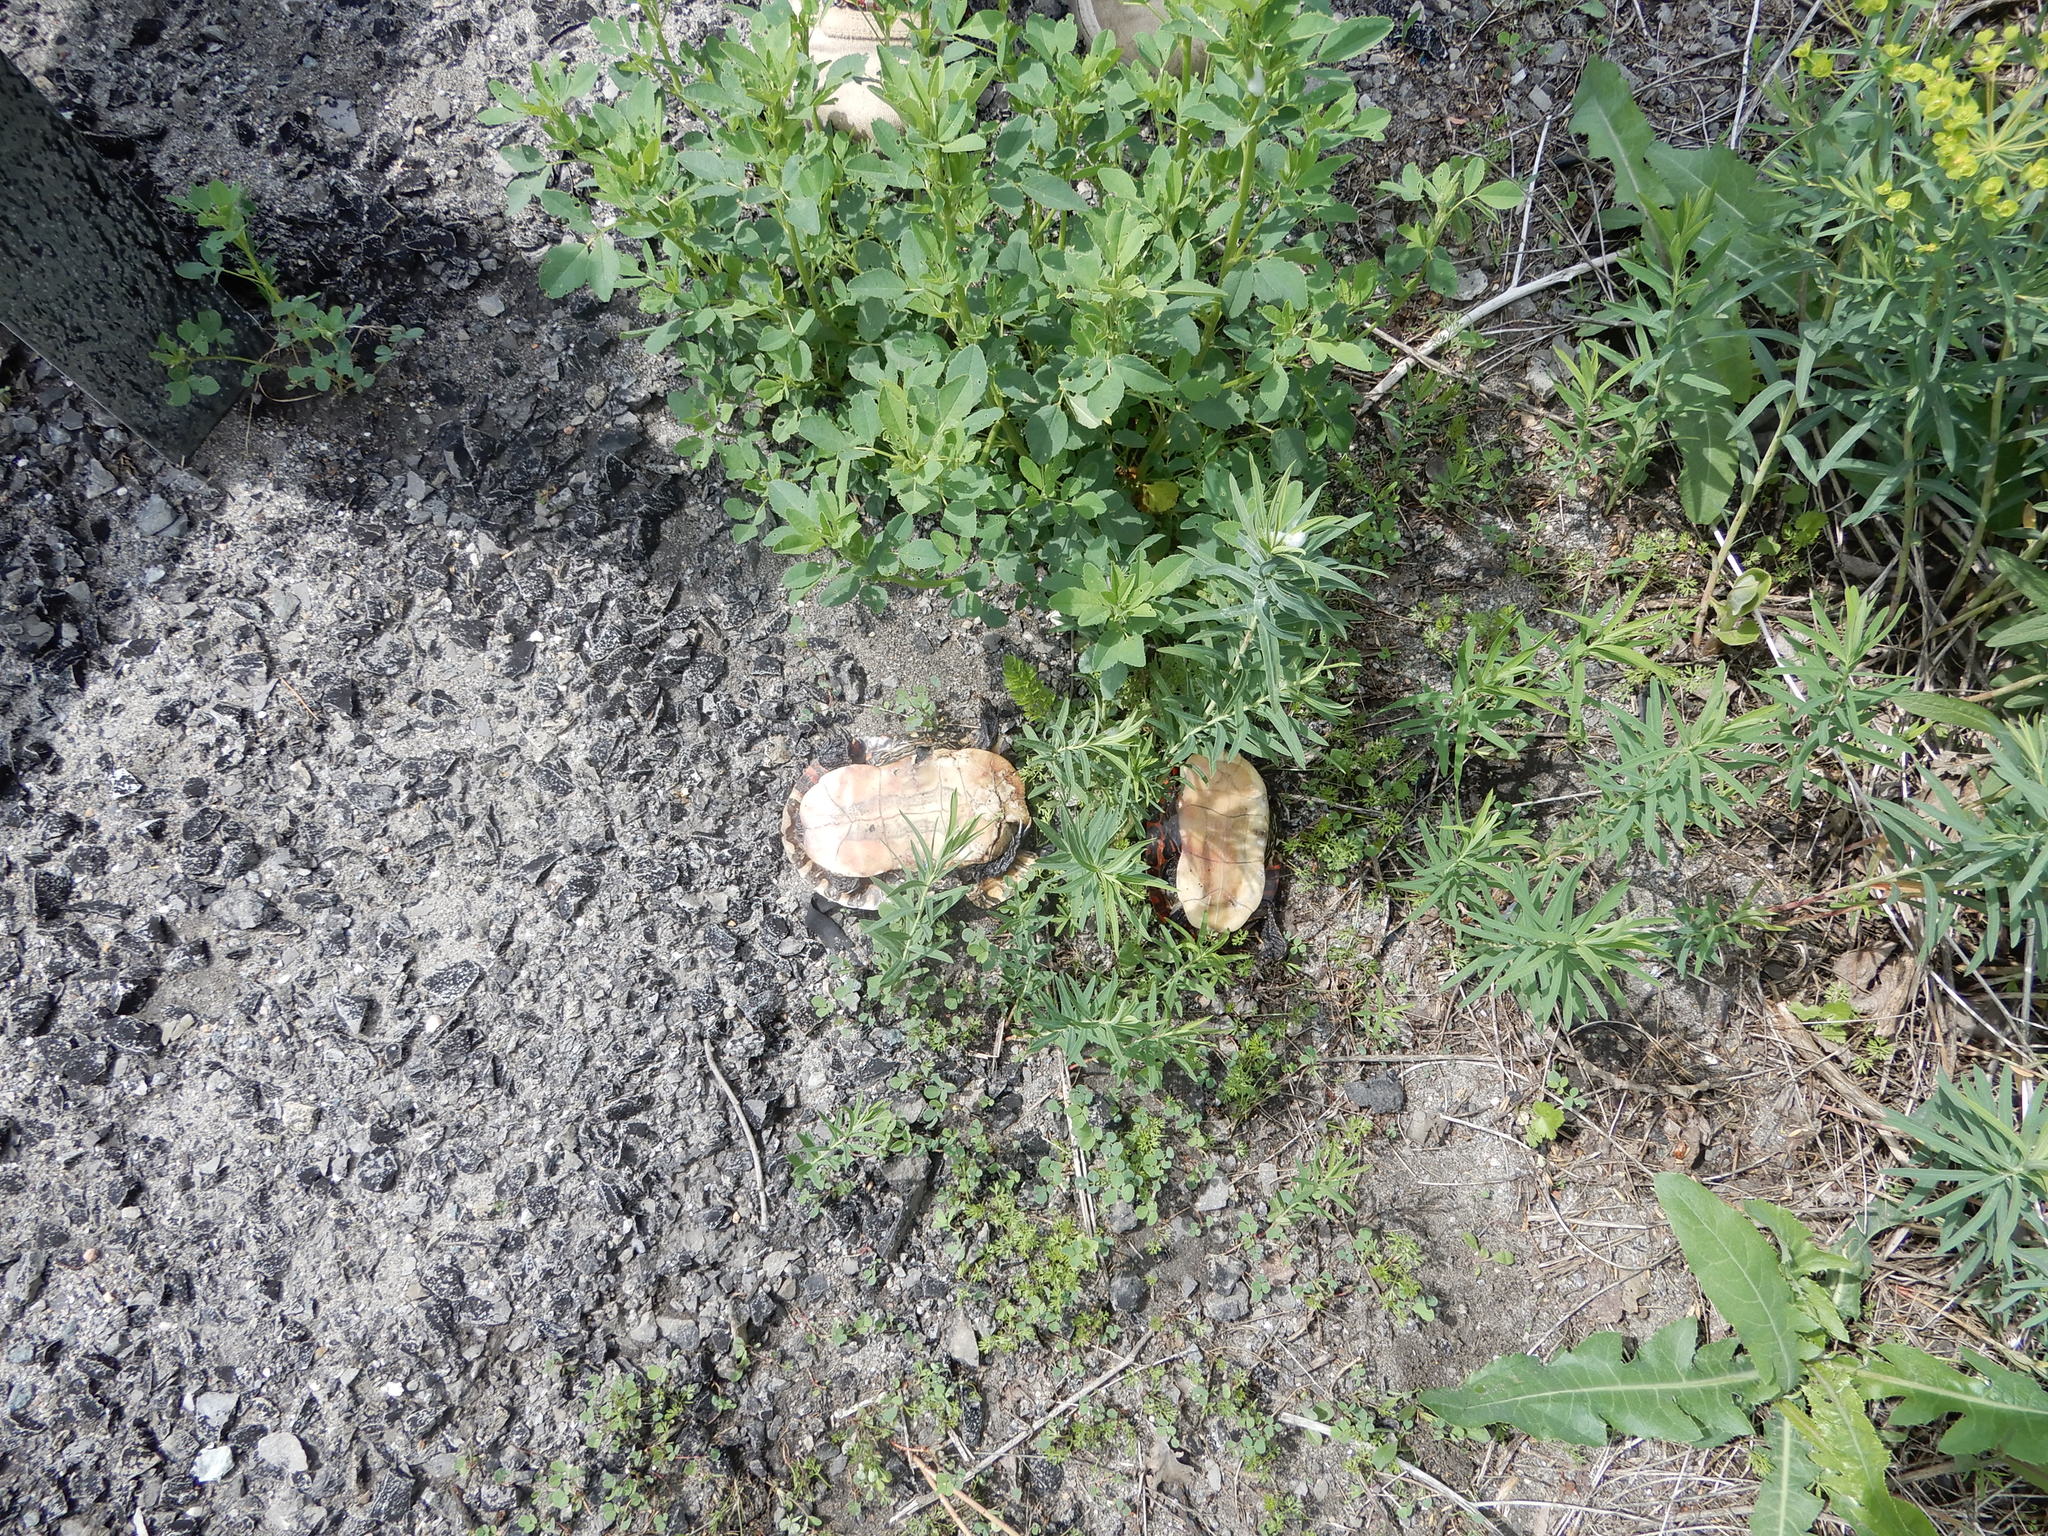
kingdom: Animalia
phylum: Chordata
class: Testudines
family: Emydidae
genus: Chrysemys
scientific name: Chrysemys picta
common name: Painted turtle
